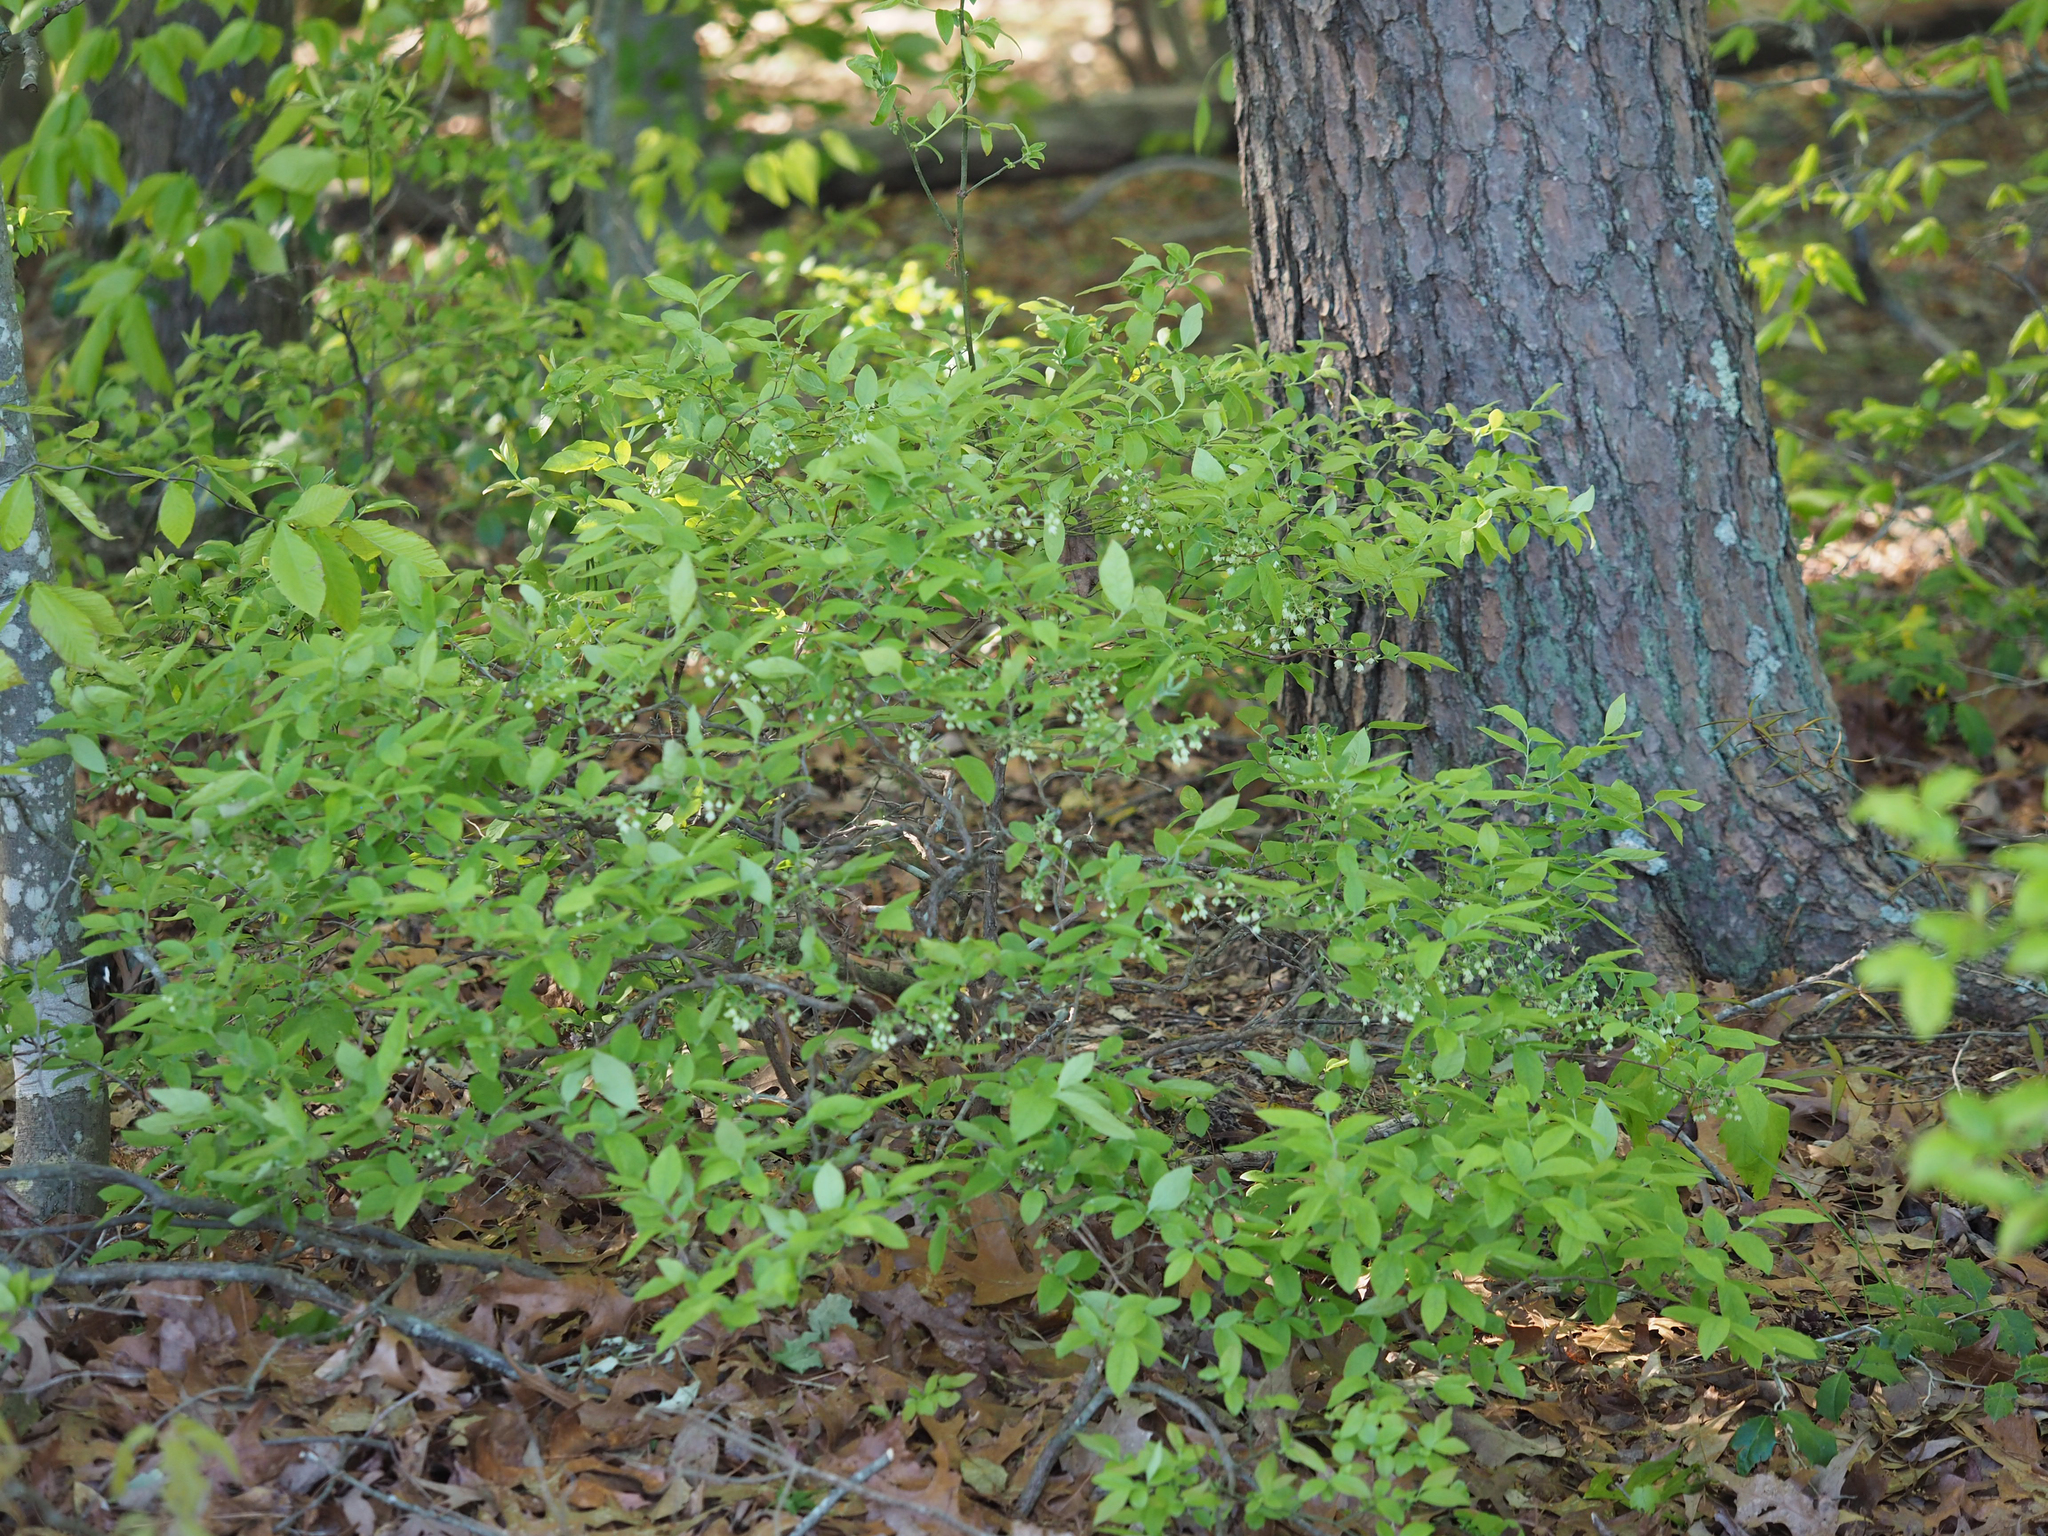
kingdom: Plantae
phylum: Tracheophyta
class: Magnoliopsida
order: Ericales
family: Ericaceae
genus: Vaccinium
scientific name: Vaccinium stamineum
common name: Deerberry
